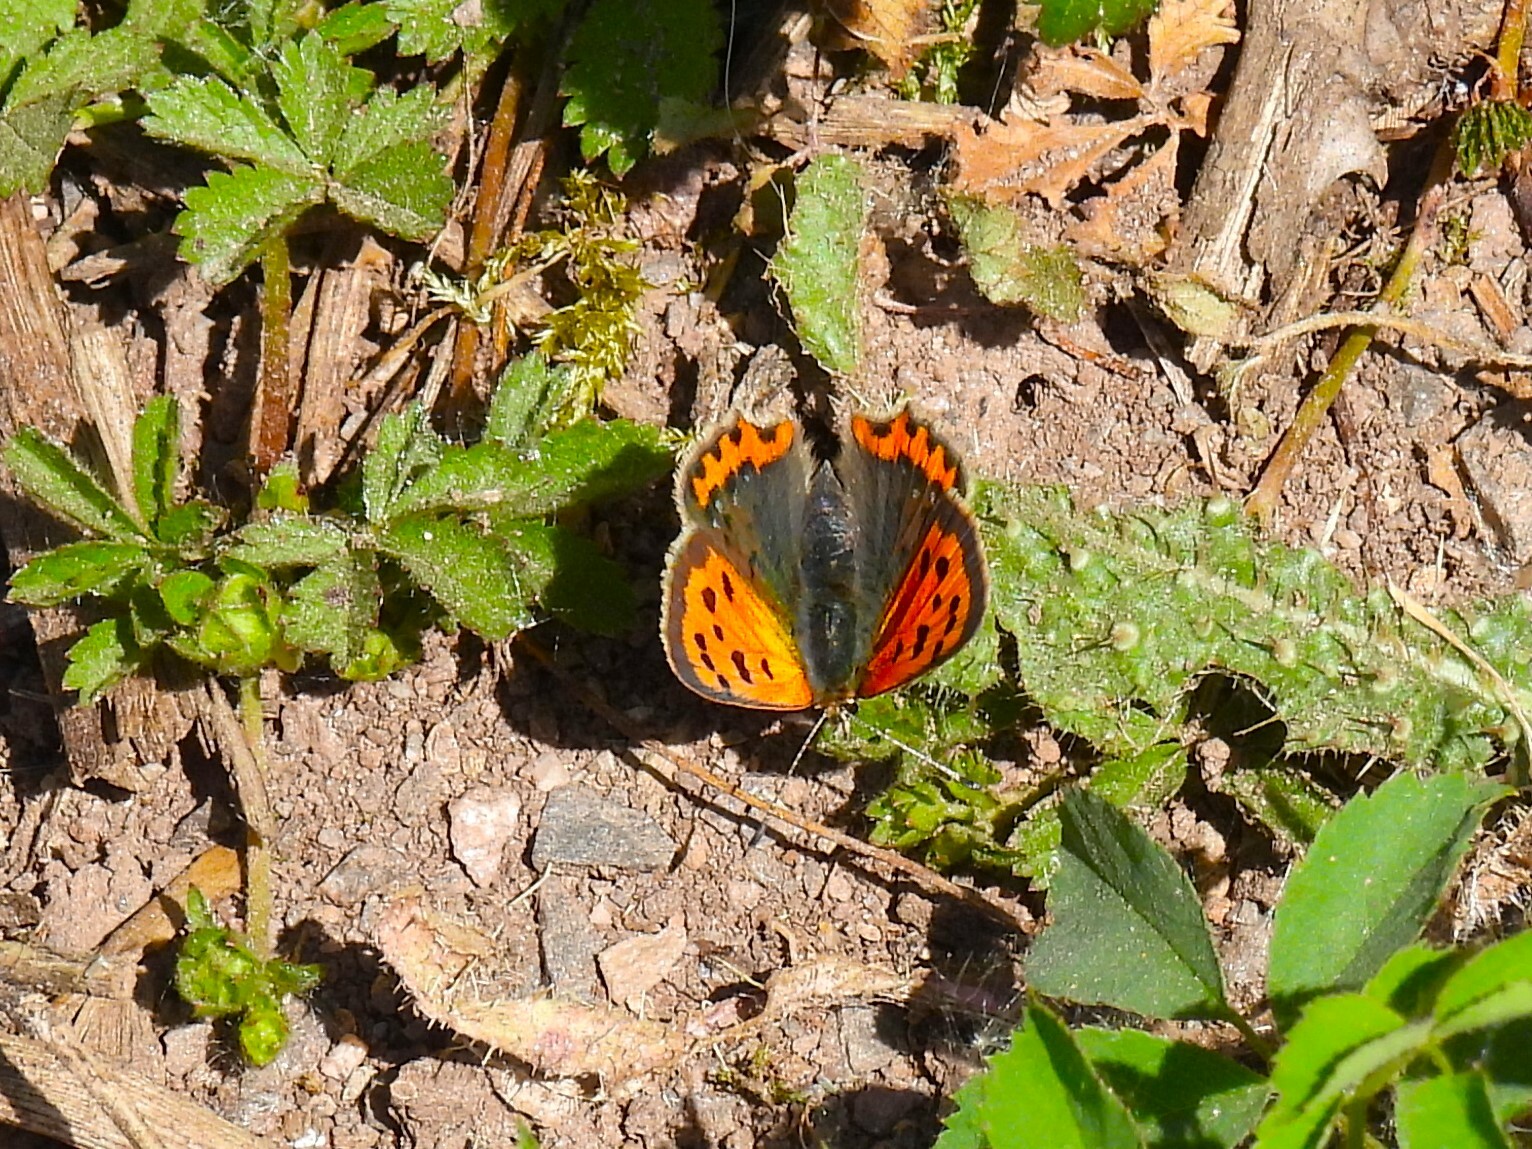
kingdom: Animalia
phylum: Arthropoda
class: Insecta
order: Lepidoptera
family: Lycaenidae
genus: Lycaena
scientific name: Lycaena phlaeas
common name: Small copper
